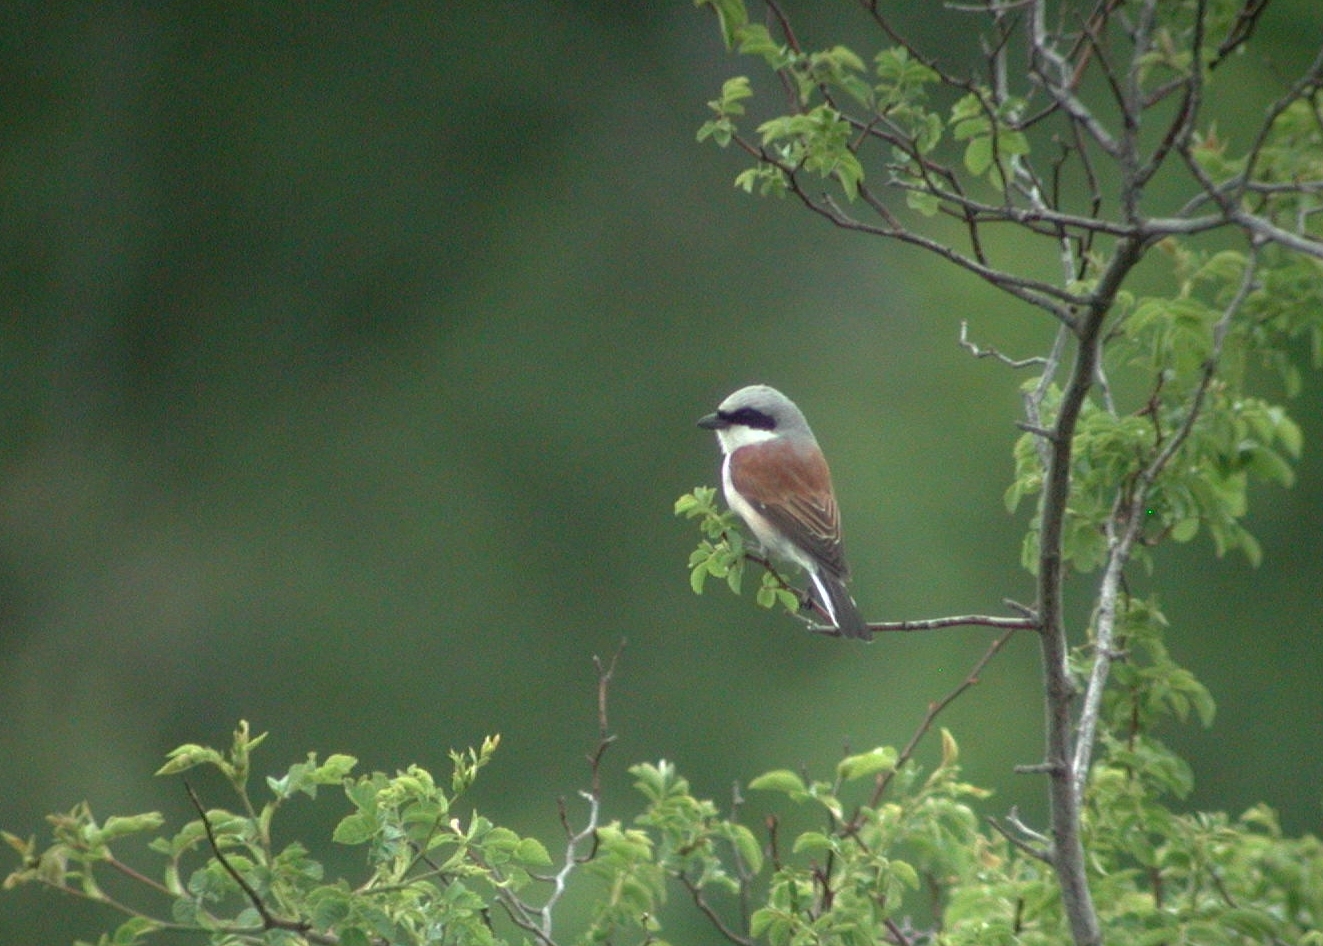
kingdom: Animalia
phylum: Chordata
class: Aves
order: Passeriformes
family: Laniidae
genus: Lanius
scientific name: Lanius collurio
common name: Red-backed shrike
